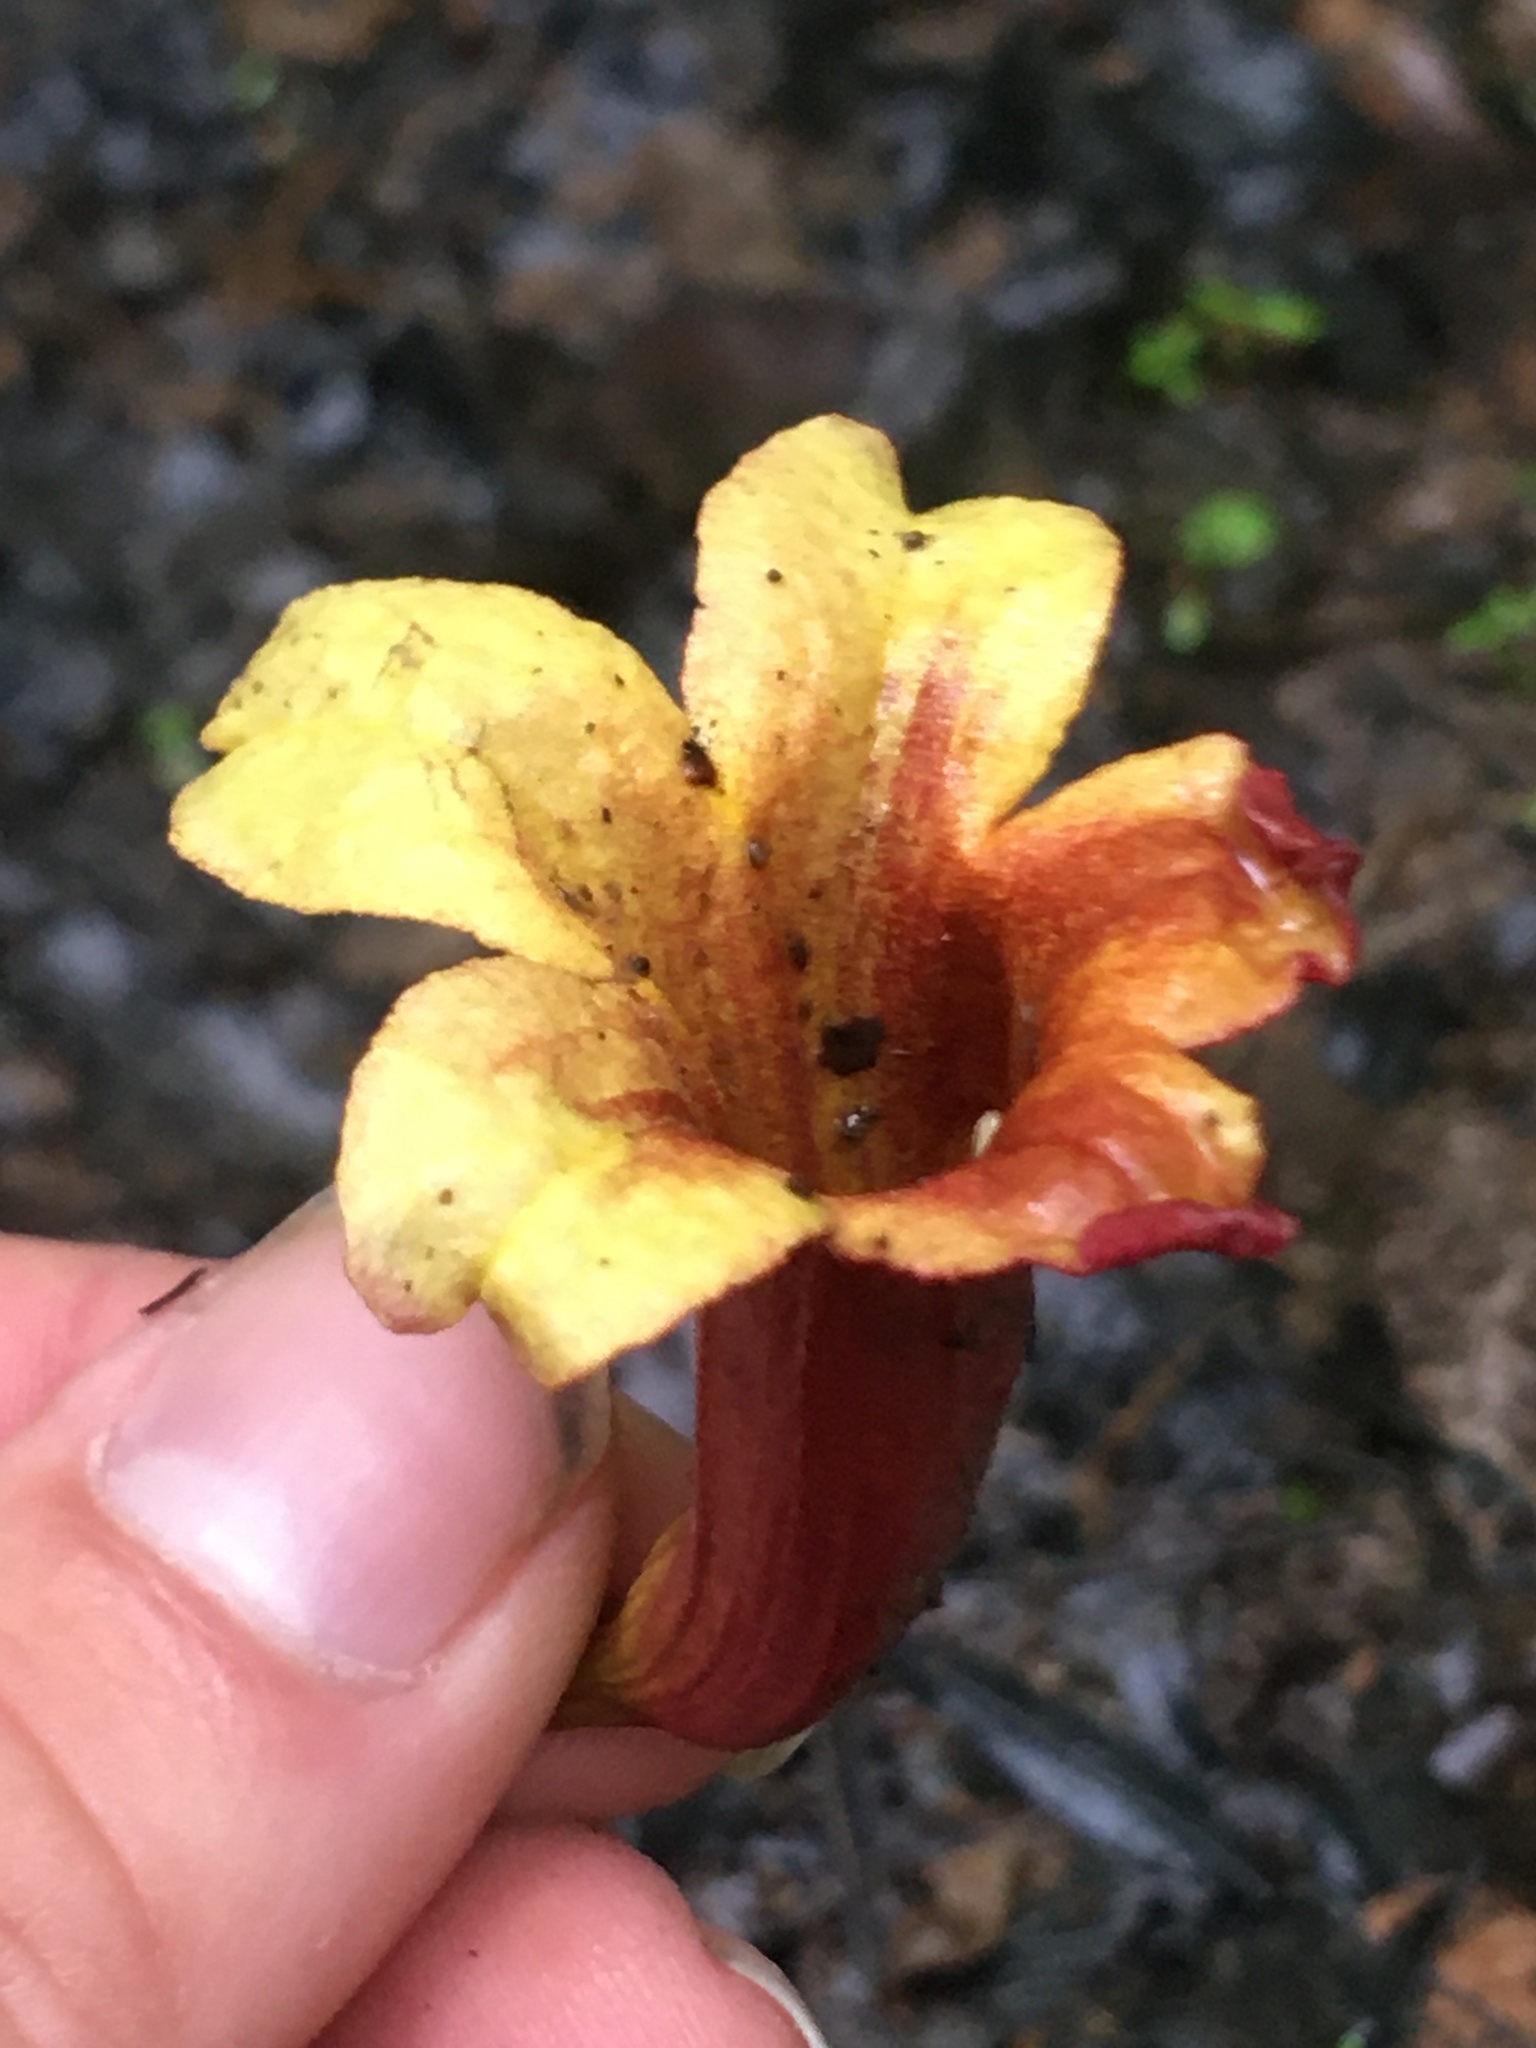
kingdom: Plantae
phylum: Tracheophyta
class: Magnoliopsida
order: Lamiales
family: Bignoniaceae
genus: Bignonia
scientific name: Bignonia capreolata
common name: Crossvine
